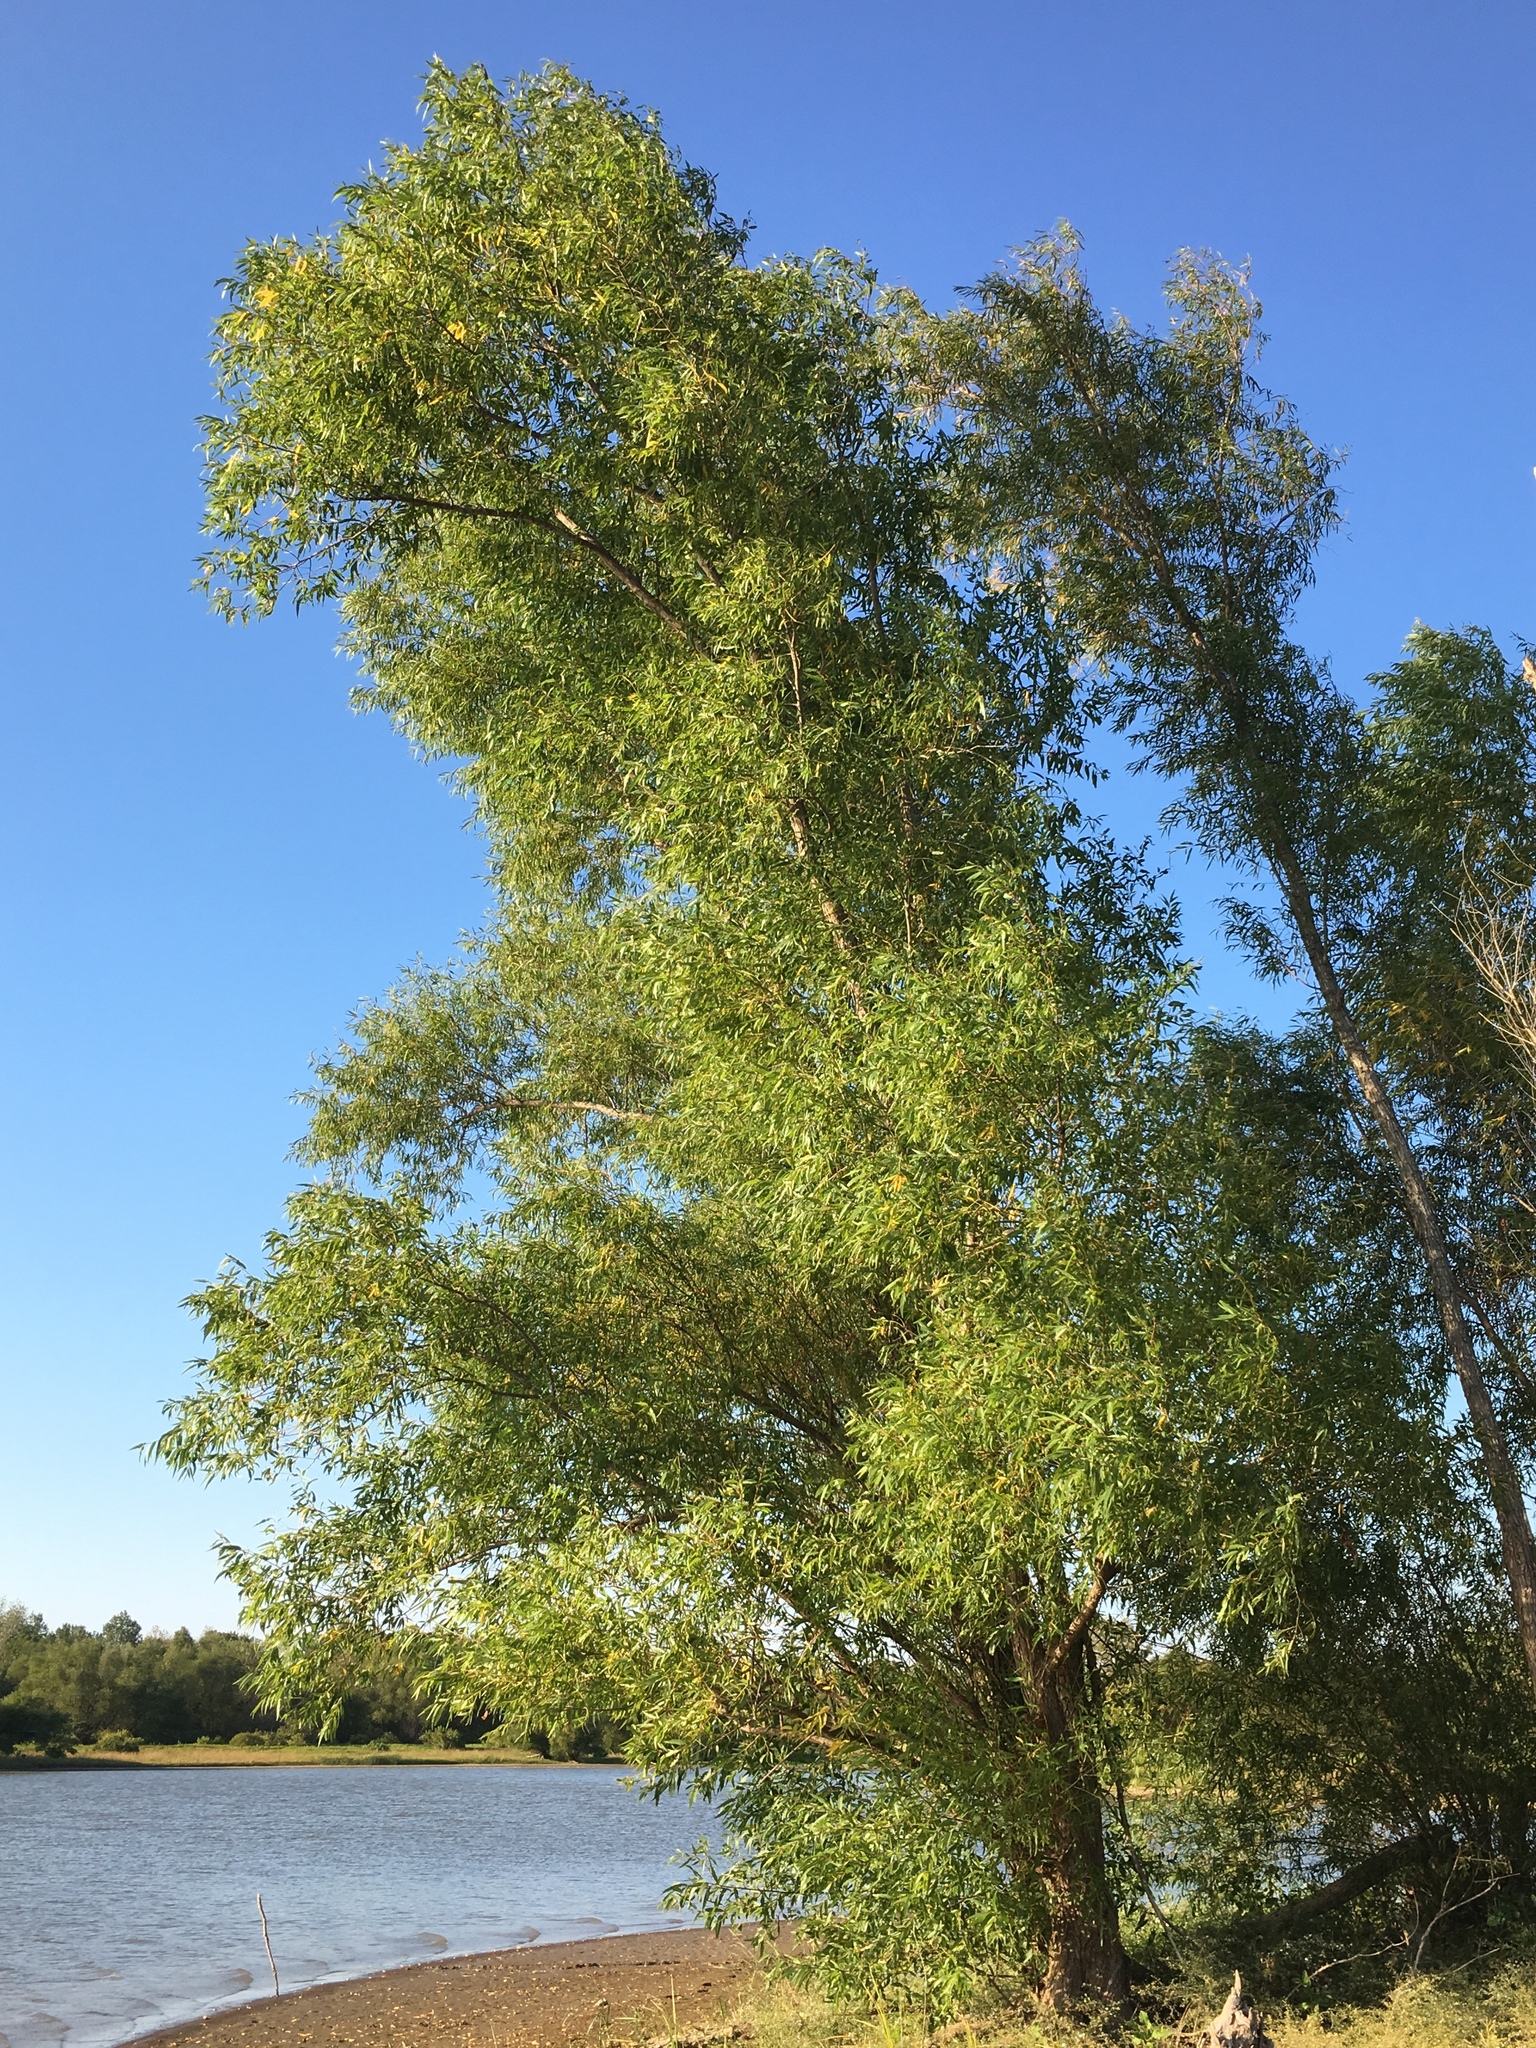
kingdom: Plantae
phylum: Tracheophyta
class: Magnoliopsida
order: Malpighiales
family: Salicaceae
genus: Salix
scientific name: Salix nigra
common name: Black willow
